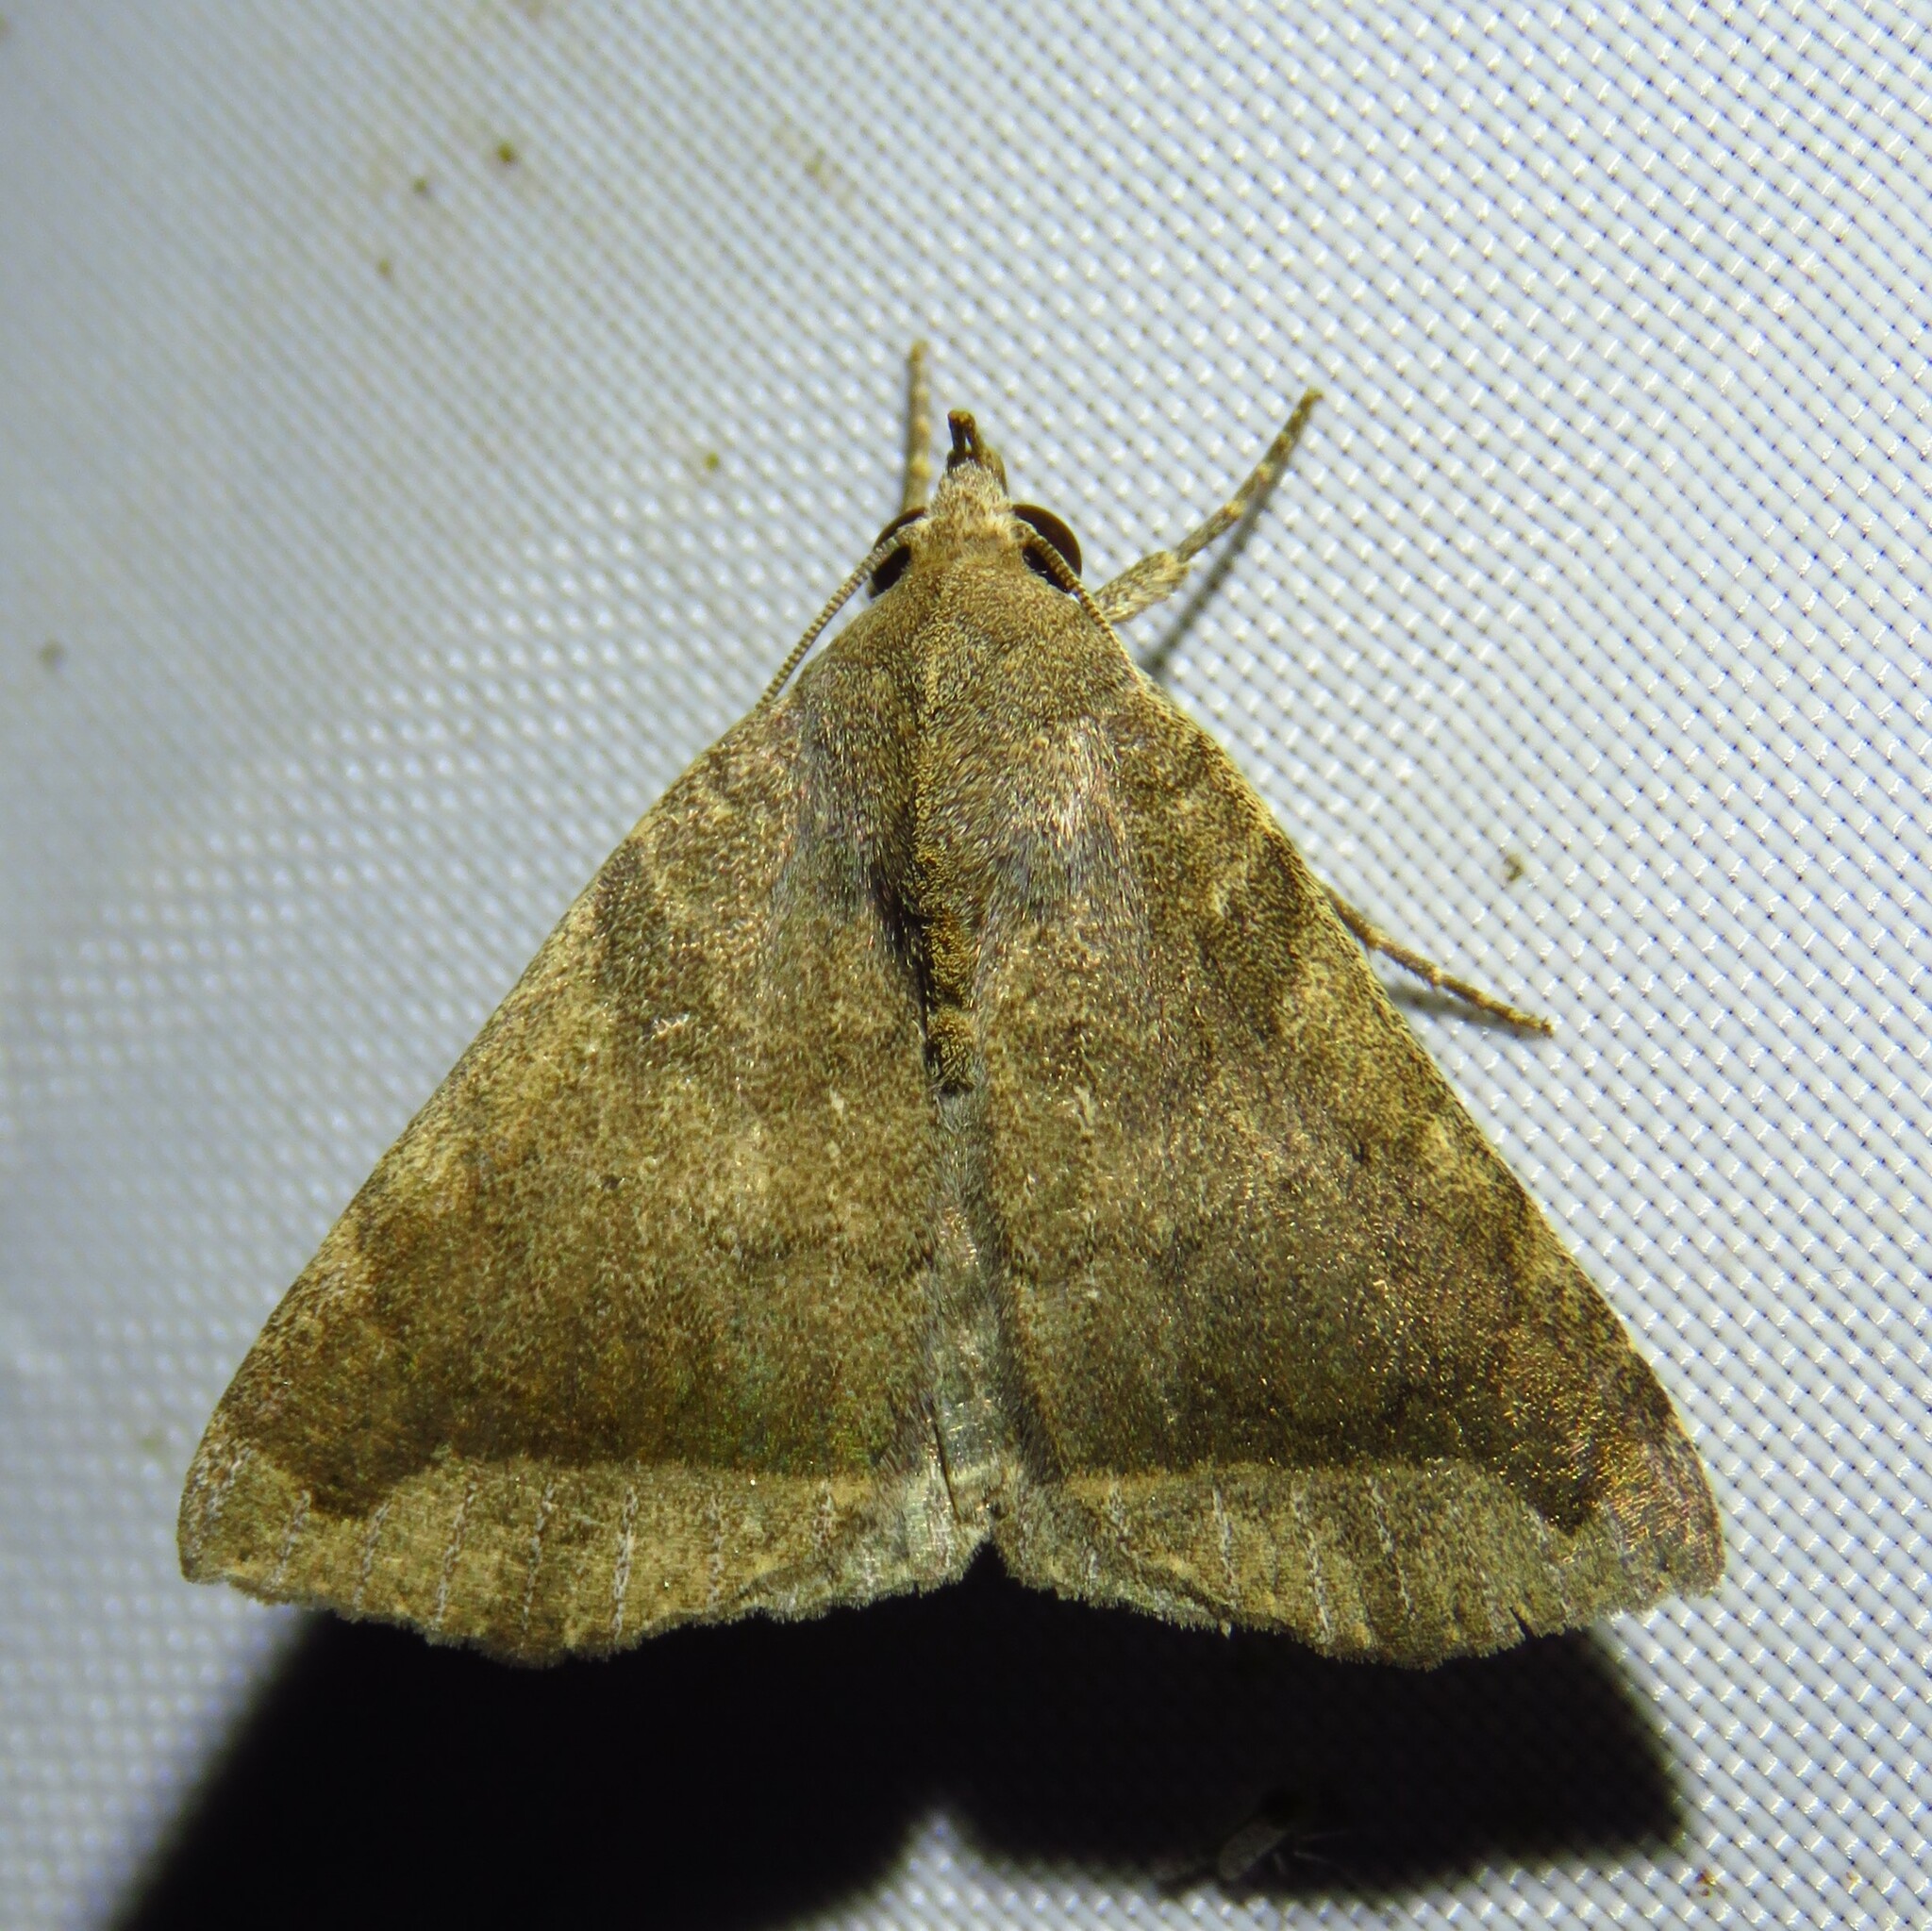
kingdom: Animalia
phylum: Arthropoda
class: Insecta
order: Lepidoptera
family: Erebidae
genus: Bendisodes
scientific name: Bendisodes aeolia
